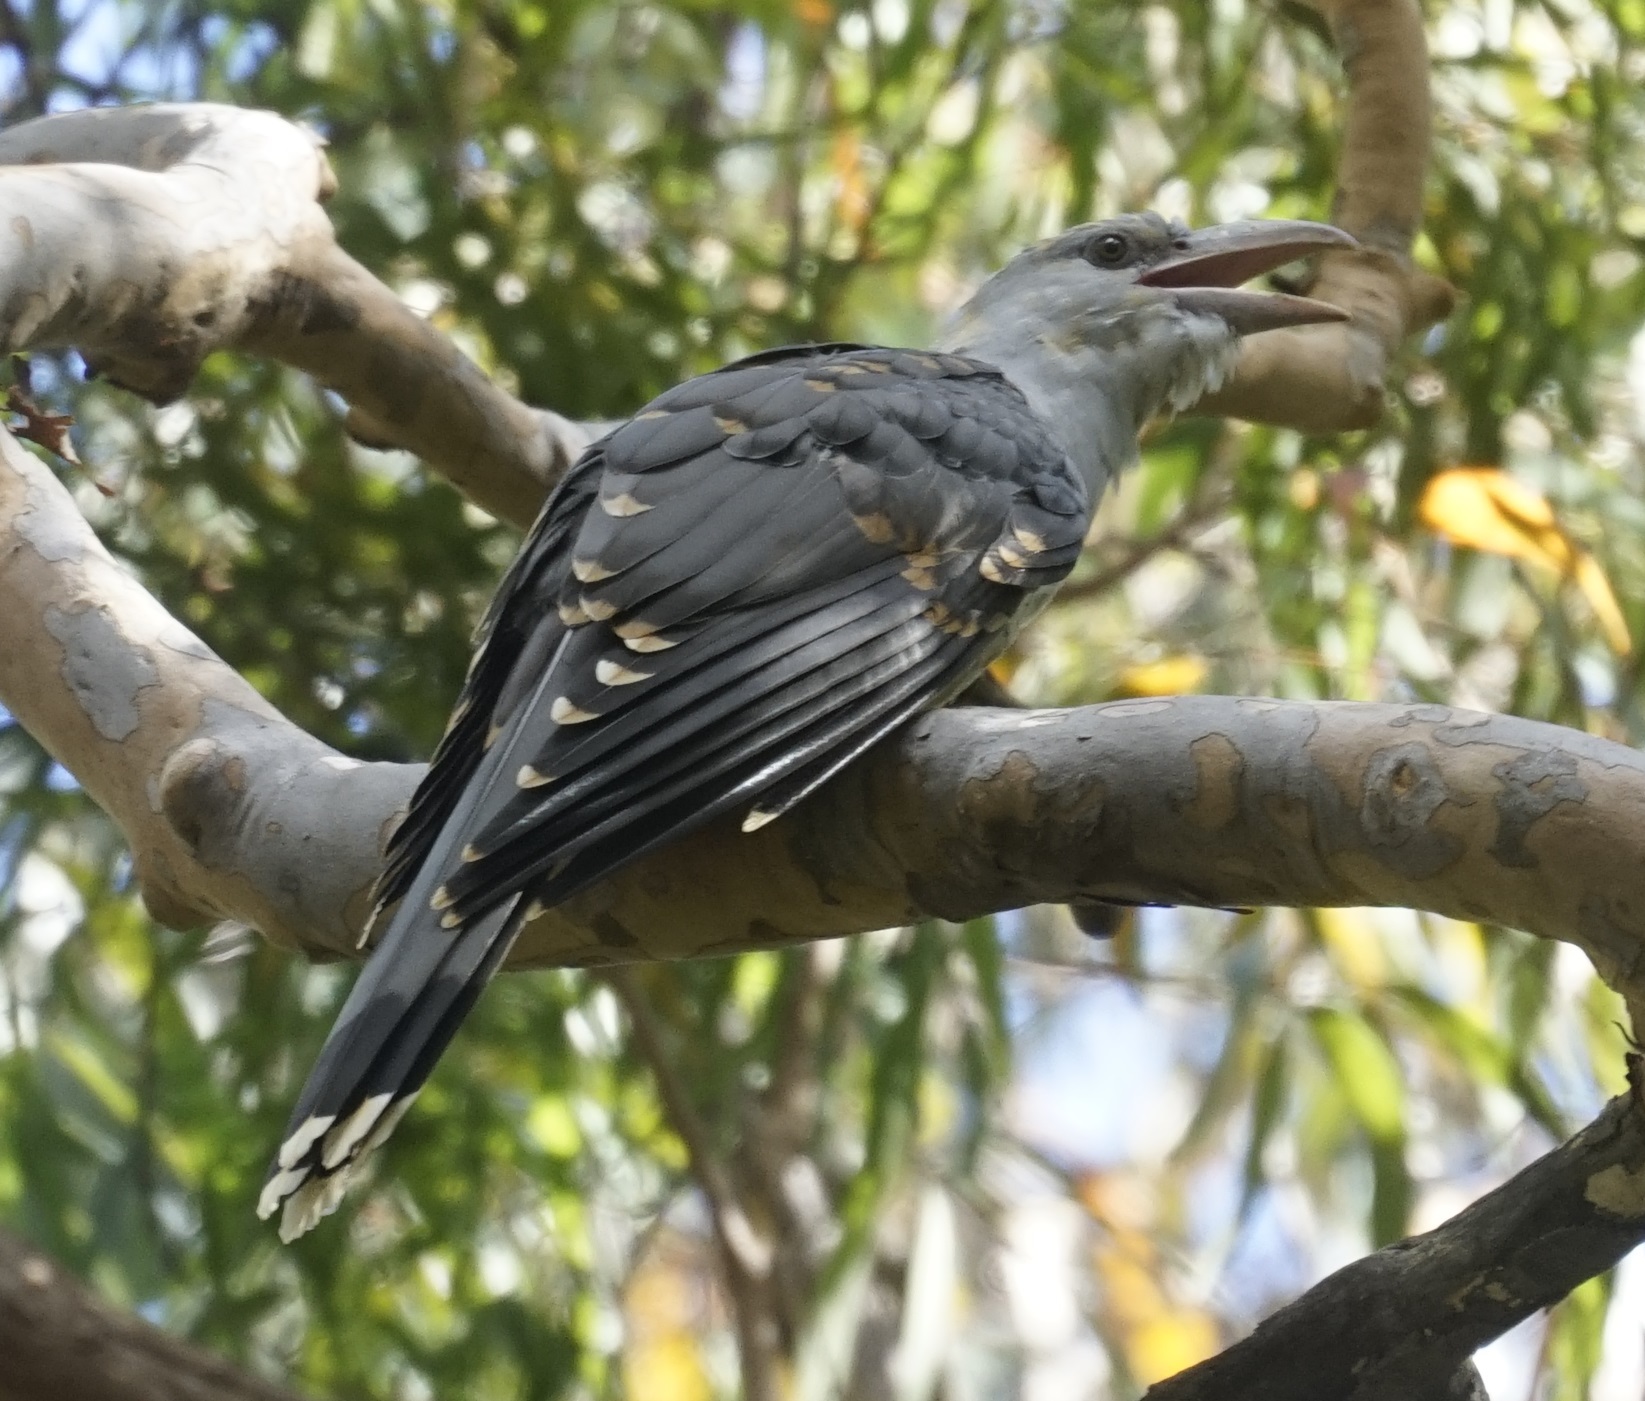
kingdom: Animalia
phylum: Chordata
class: Aves
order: Cuculiformes
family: Cuculidae
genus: Scythrops
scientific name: Scythrops novaehollandiae
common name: Channel-billed cuckoo
